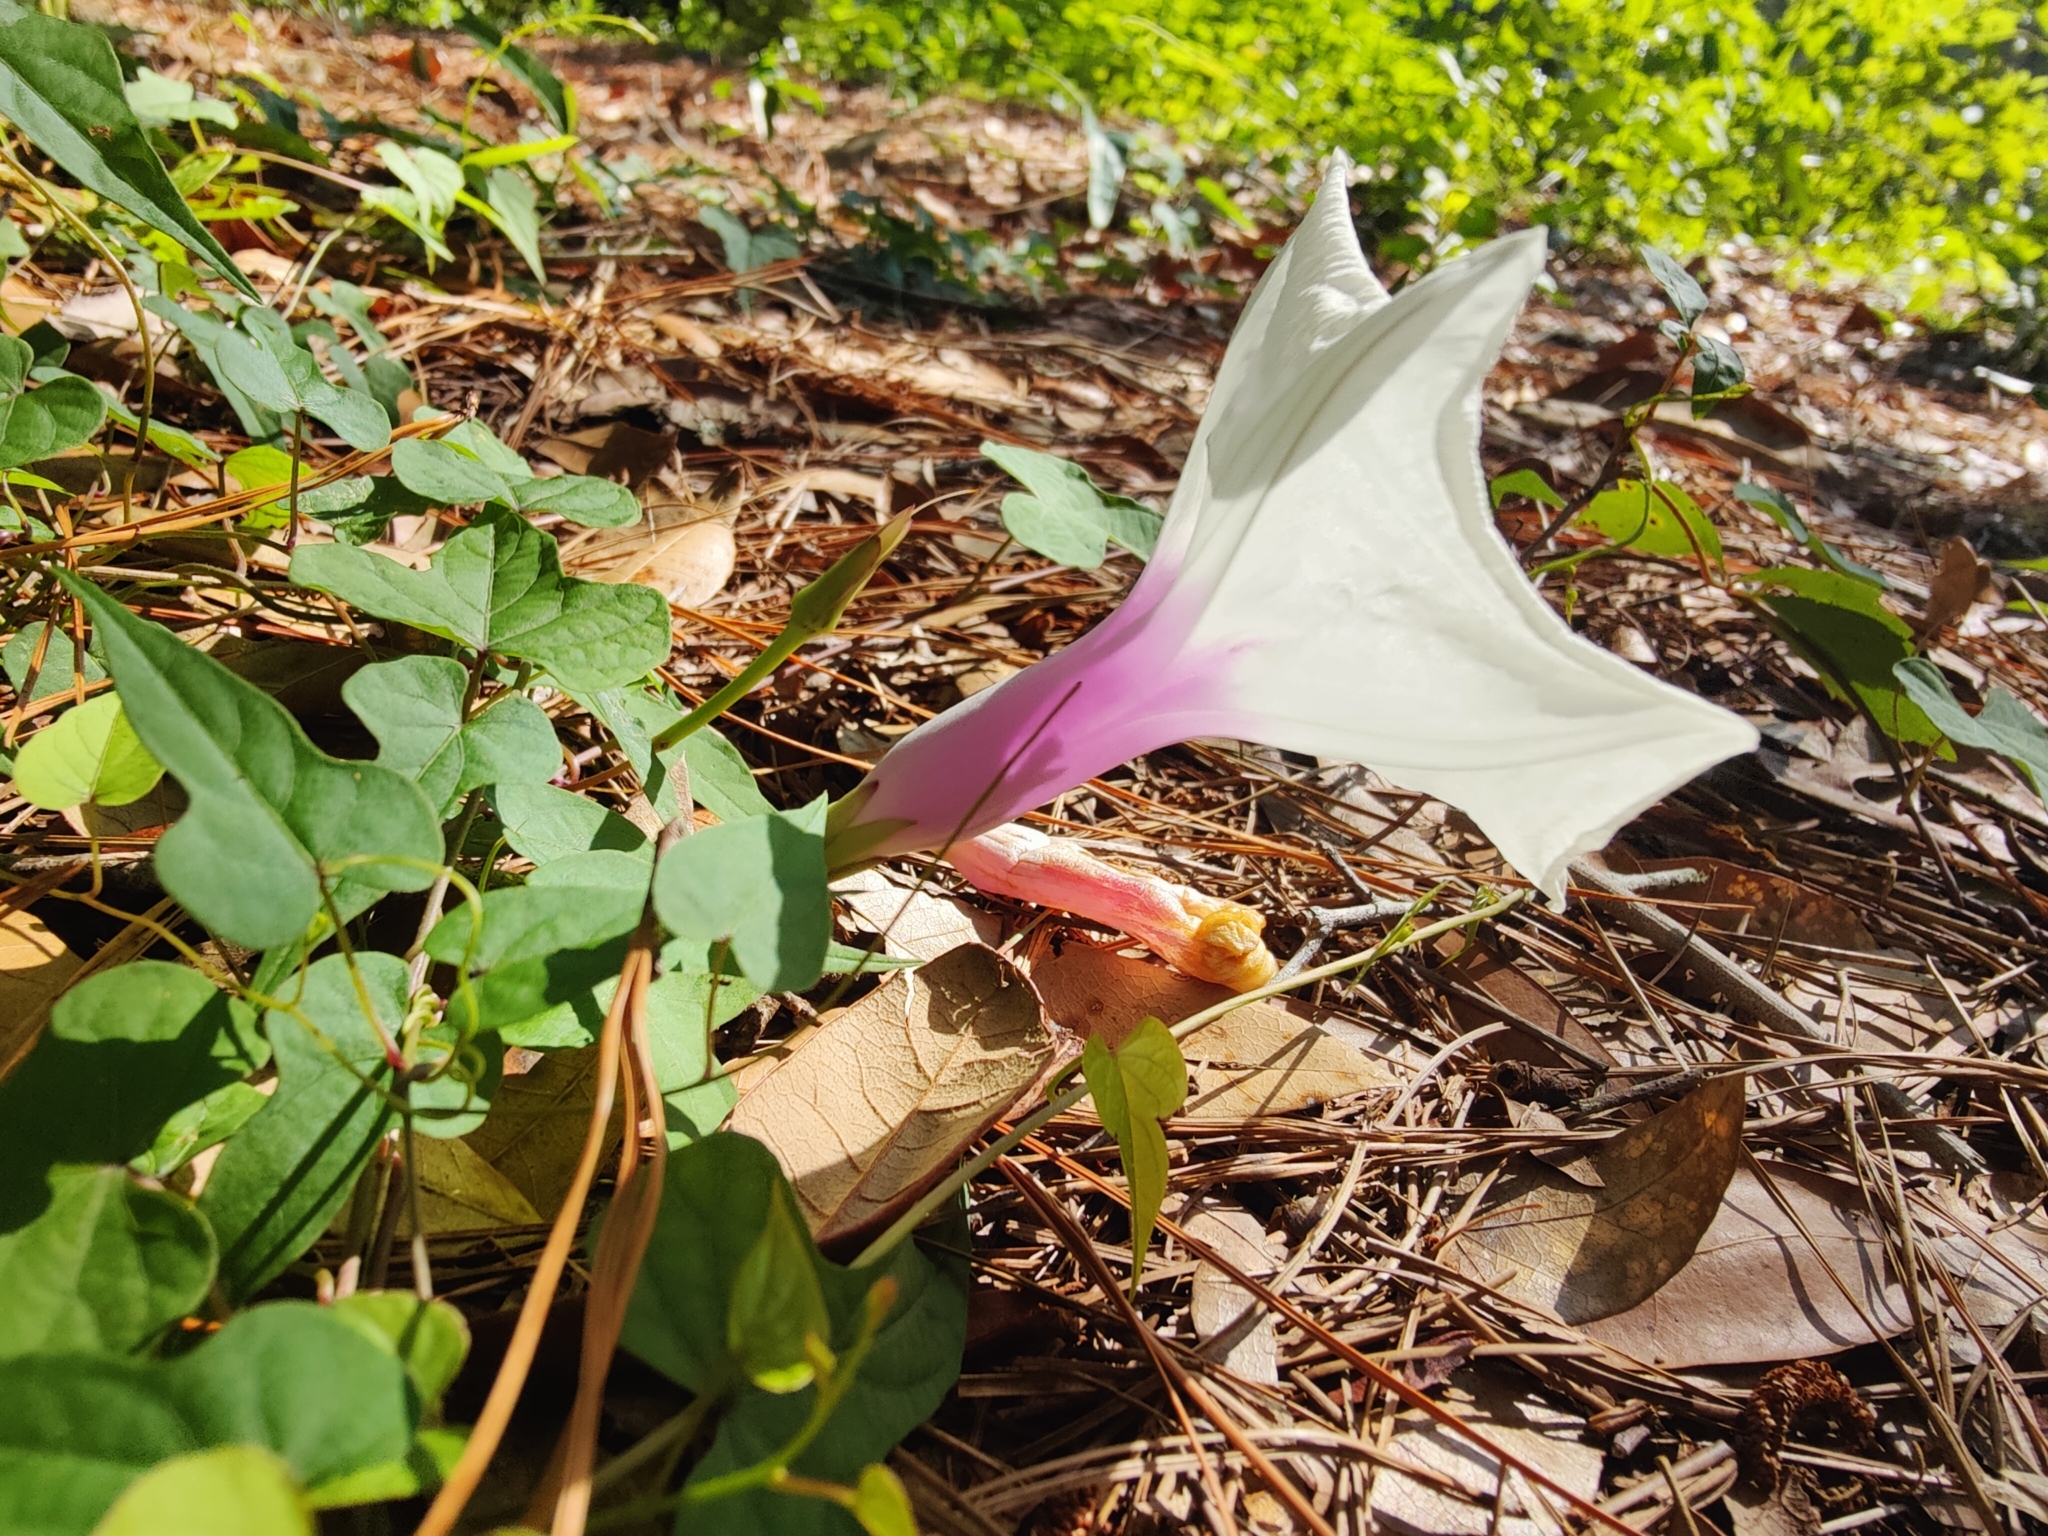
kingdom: Plantae
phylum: Tracheophyta
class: Magnoliopsida
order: Solanales
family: Convolvulaceae
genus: Ipomoea
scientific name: Ipomoea pandurata
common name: Man-of-the-earth
